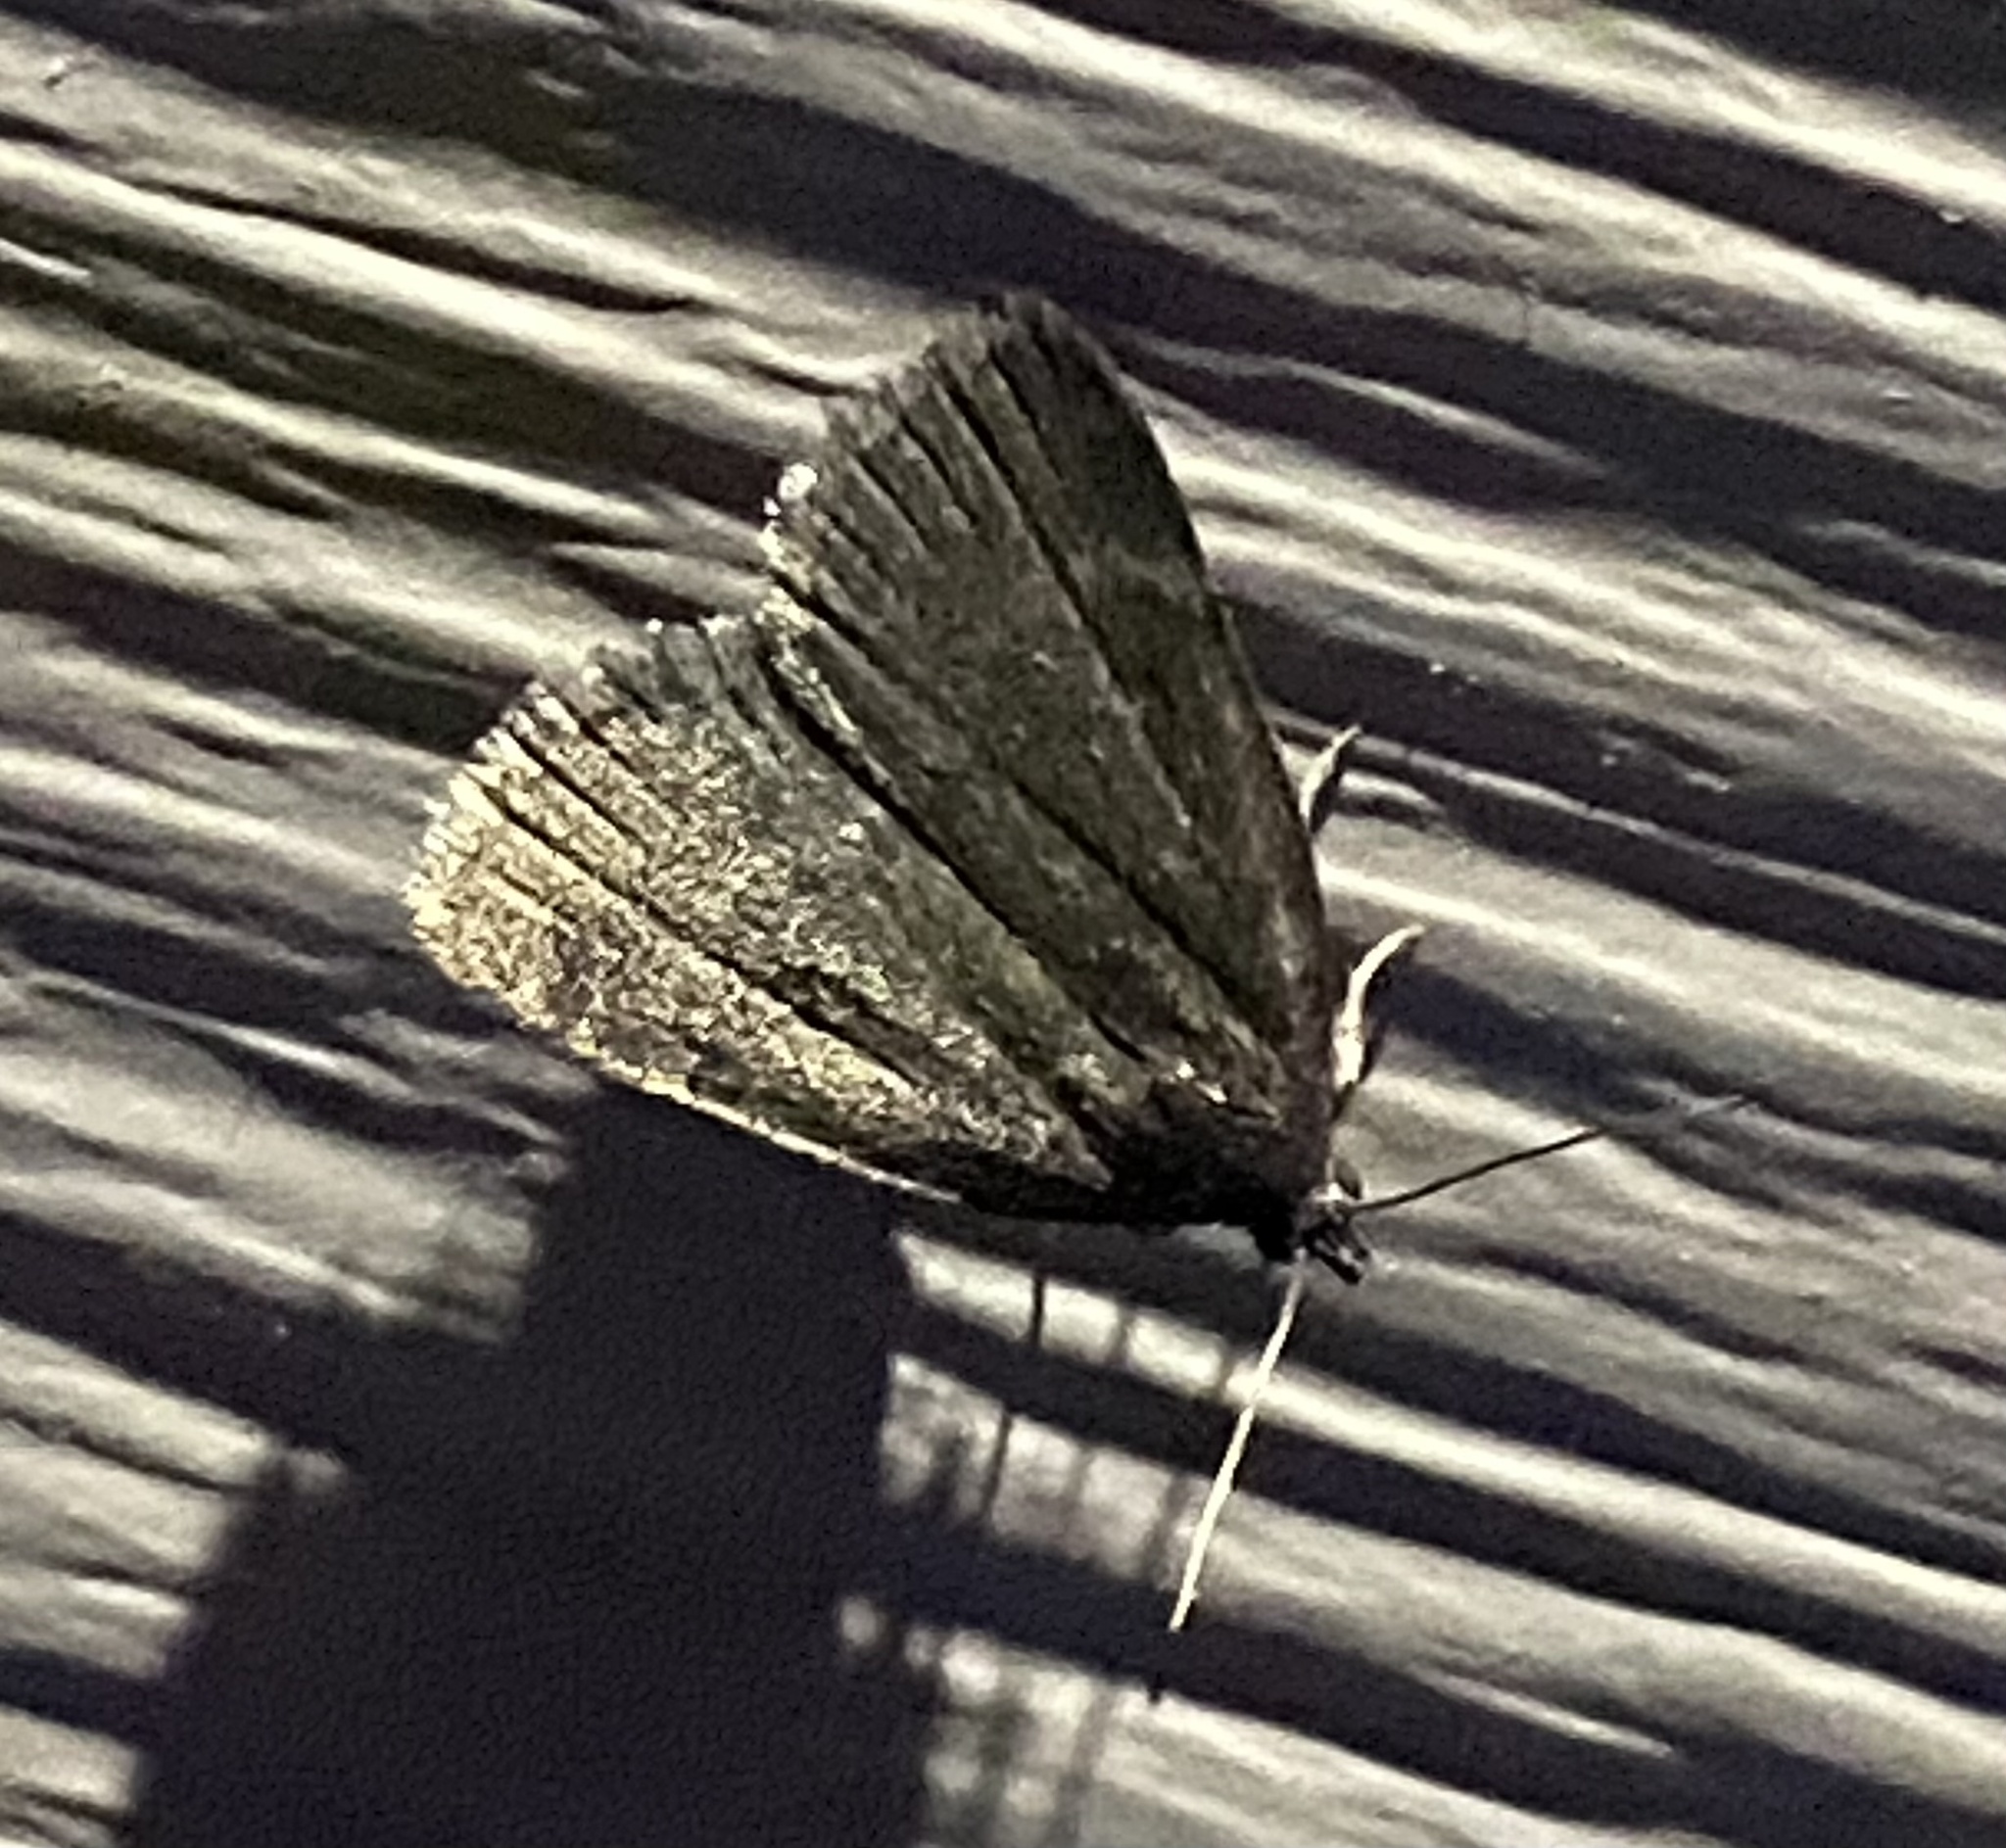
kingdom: Animalia
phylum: Arthropoda
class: Insecta
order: Lepidoptera
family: Erebidae
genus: Idia
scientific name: Idia rotundalis
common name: Rotund idia moth
